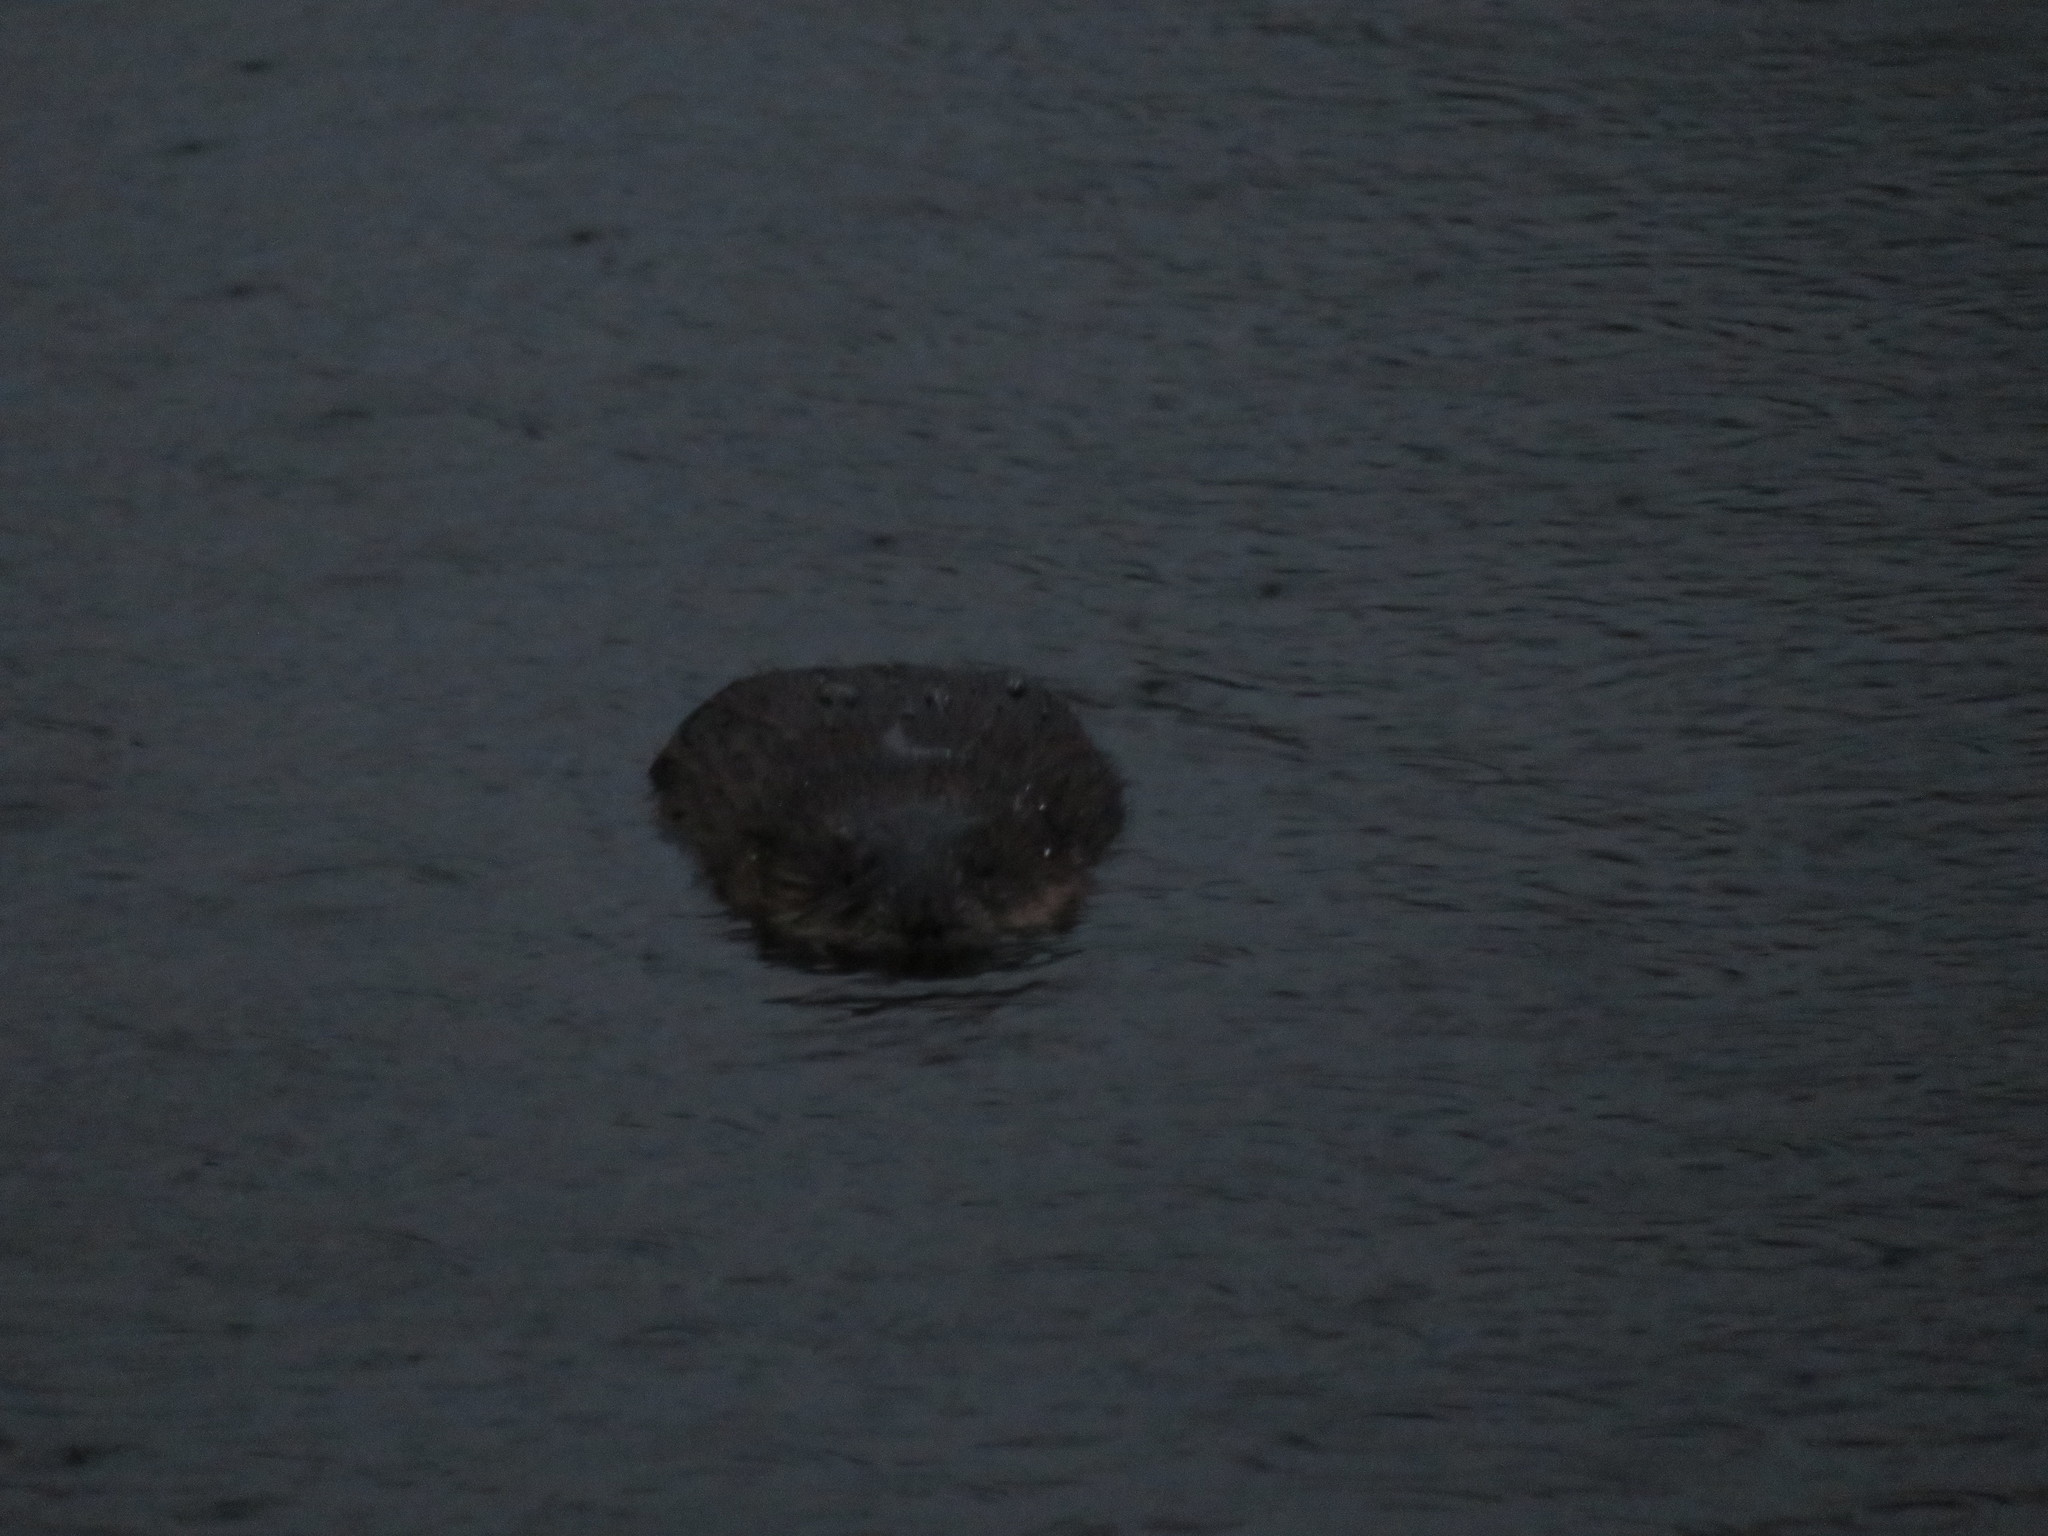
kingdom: Animalia
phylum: Chordata
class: Mammalia
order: Rodentia
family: Cricetidae
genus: Ondatra
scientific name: Ondatra zibethicus
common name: Muskrat
